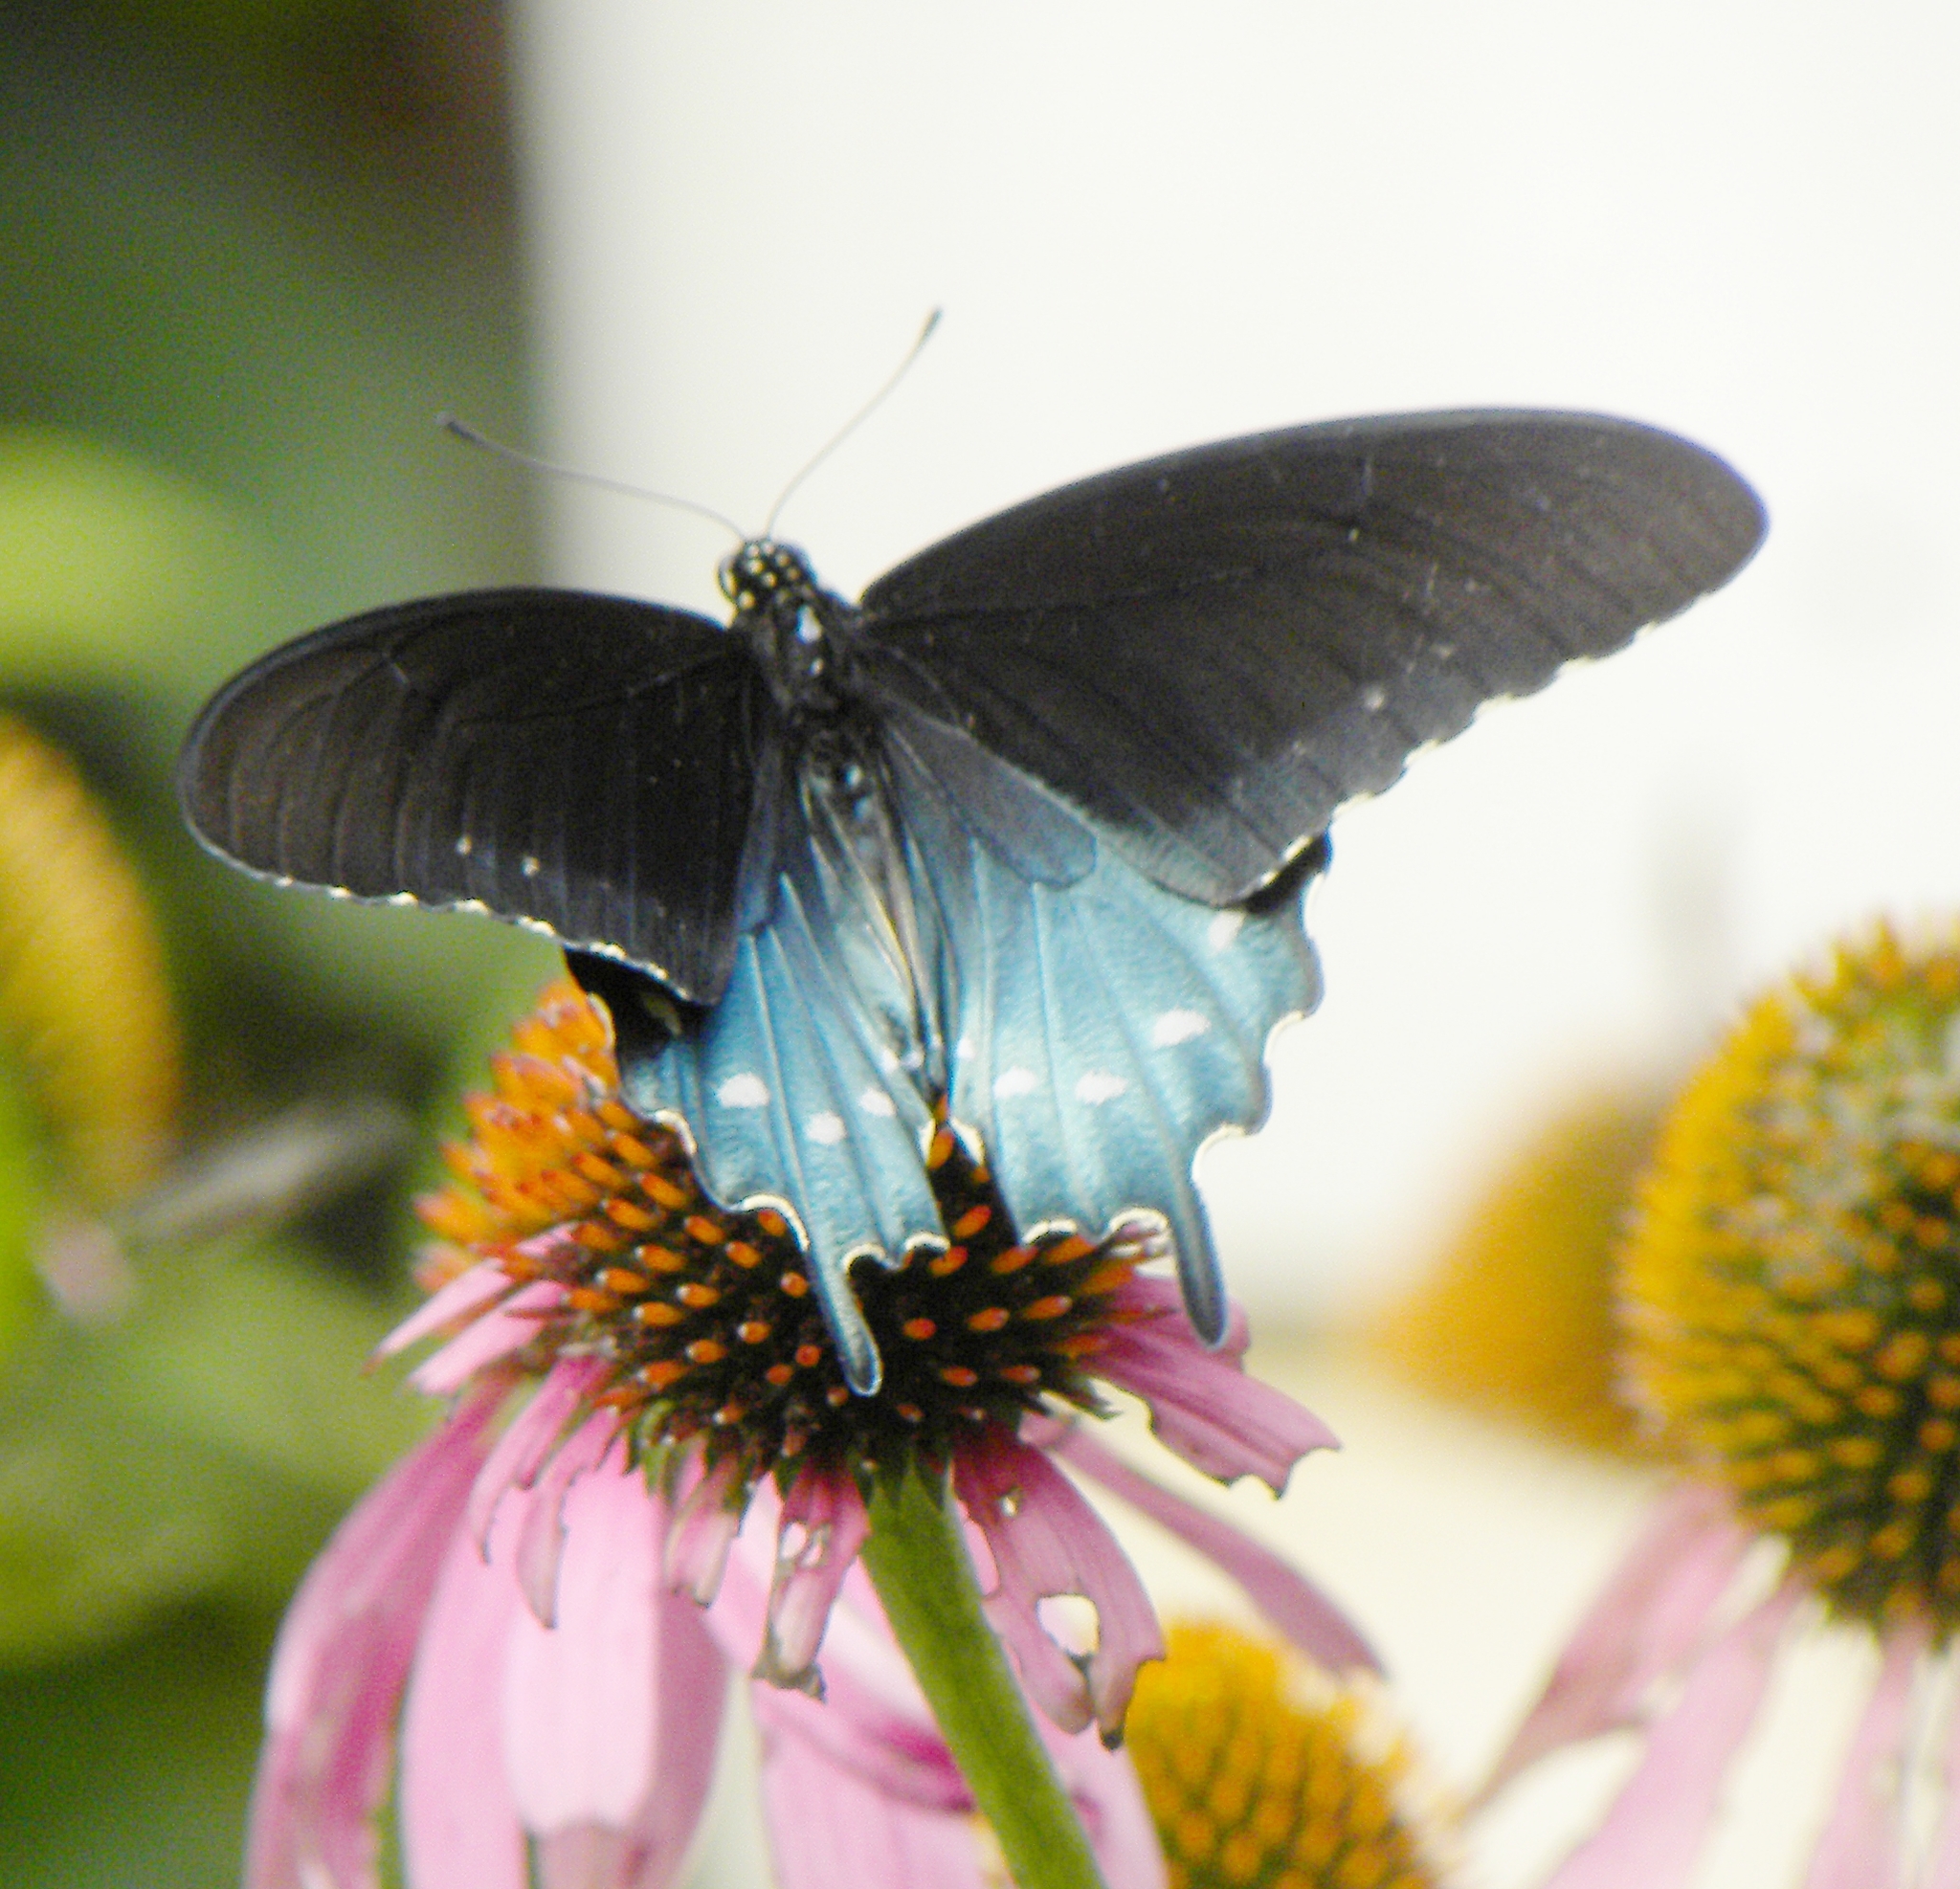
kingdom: Animalia
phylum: Arthropoda
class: Insecta
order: Lepidoptera
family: Papilionidae
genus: Battus
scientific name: Battus philenor
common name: Pipevine swallowtail
